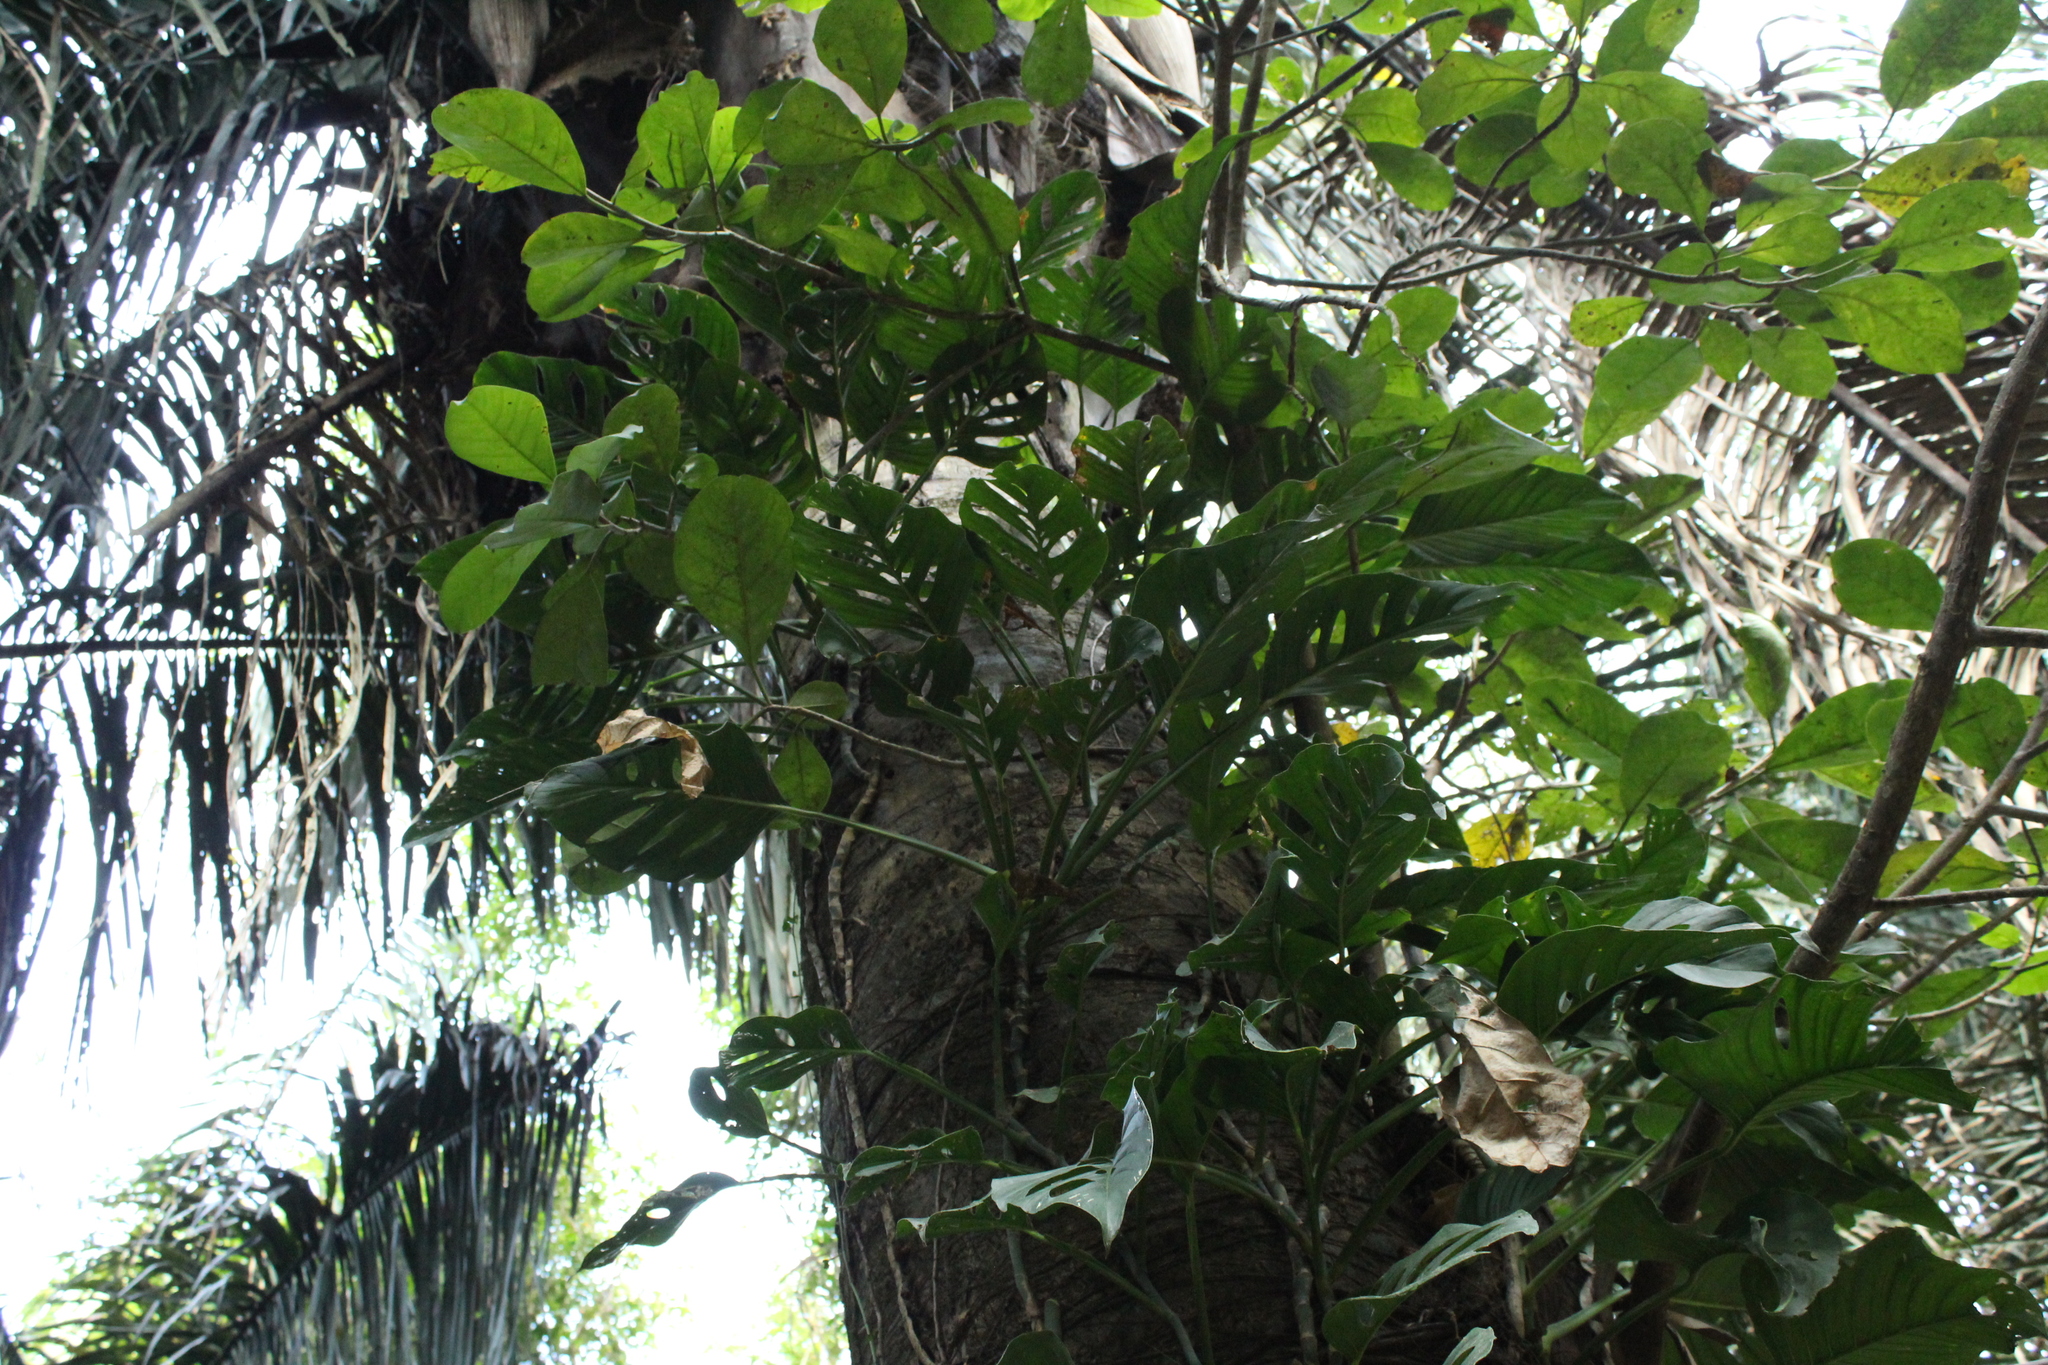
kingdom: Plantae
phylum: Tracheophyta
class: Liliopsida
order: Alismatales
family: Araceae
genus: Monstera
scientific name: Monstera adansonii
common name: Tarovine
